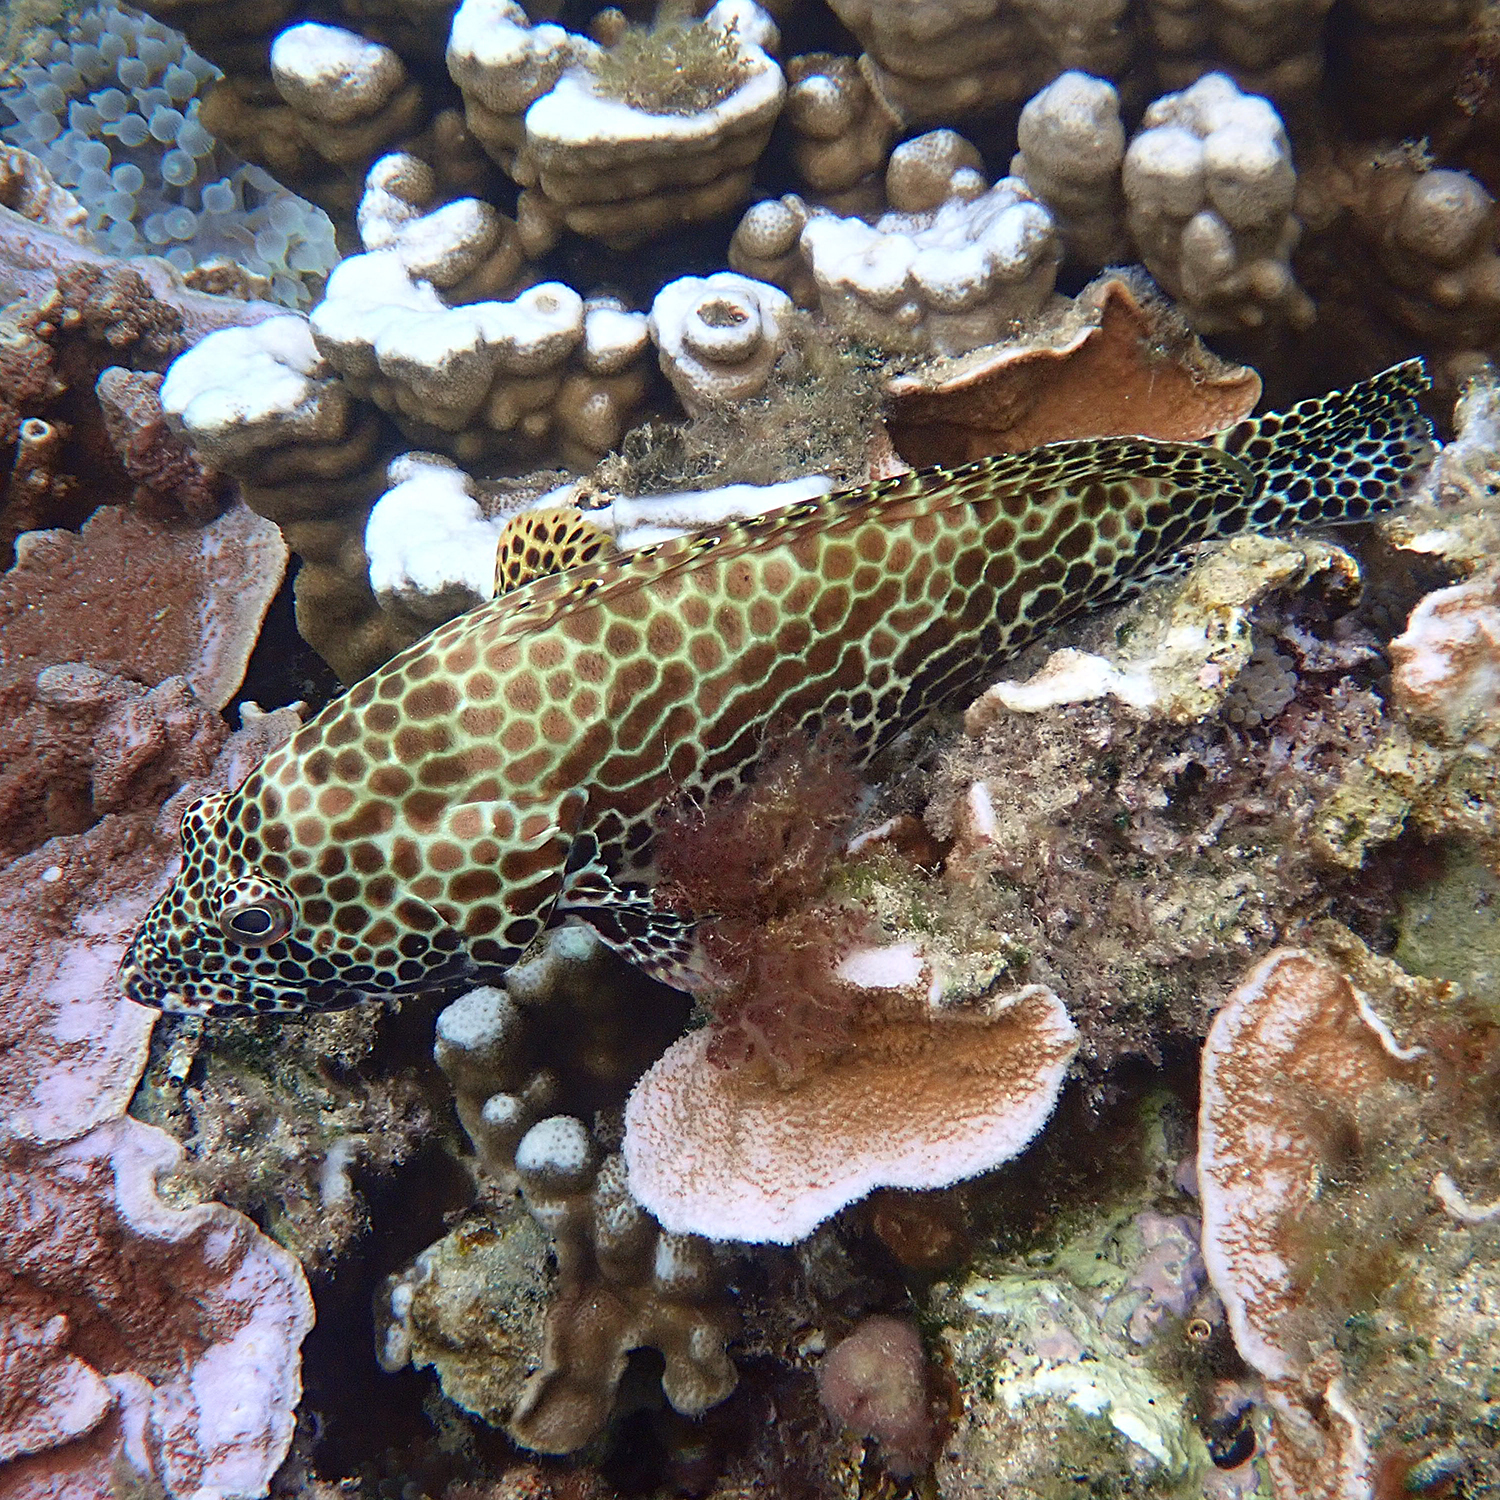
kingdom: Animalia
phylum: Chordata
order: Perciformes
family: Serranidae
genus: Epinephelus
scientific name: Epinephelus merra
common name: Honeycomb grouper
